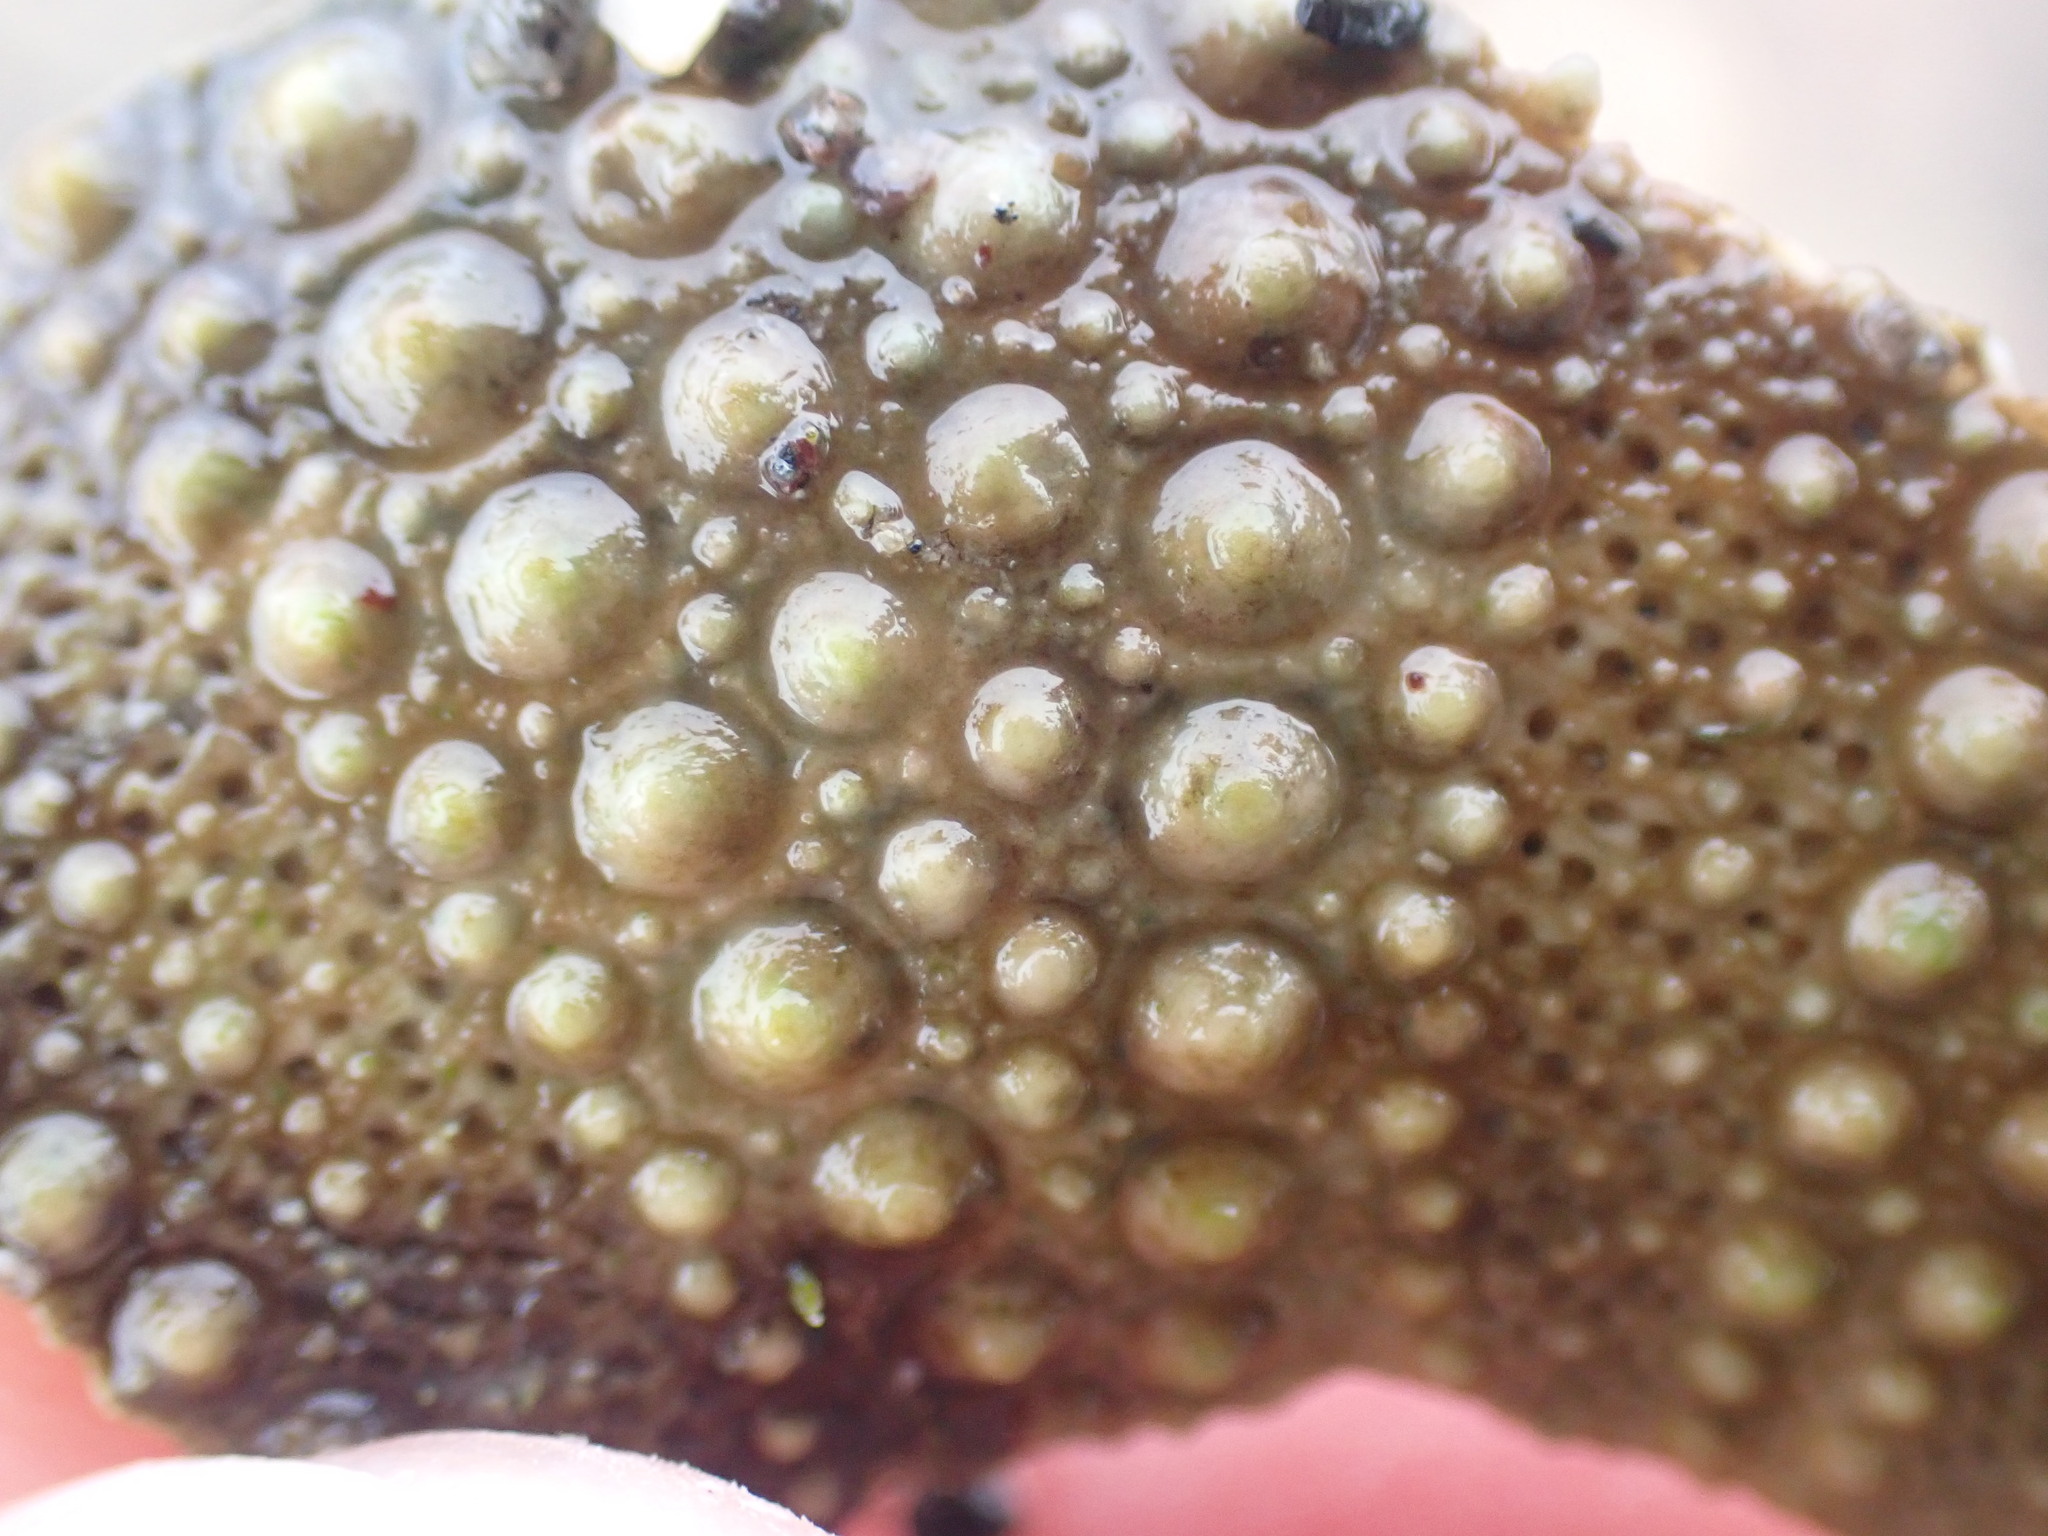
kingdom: Animalia
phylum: Echinodermata
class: Echinoidea
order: Camarodonta
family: Echinometridae
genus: Evechinus
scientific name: Evechinus chloroticus
